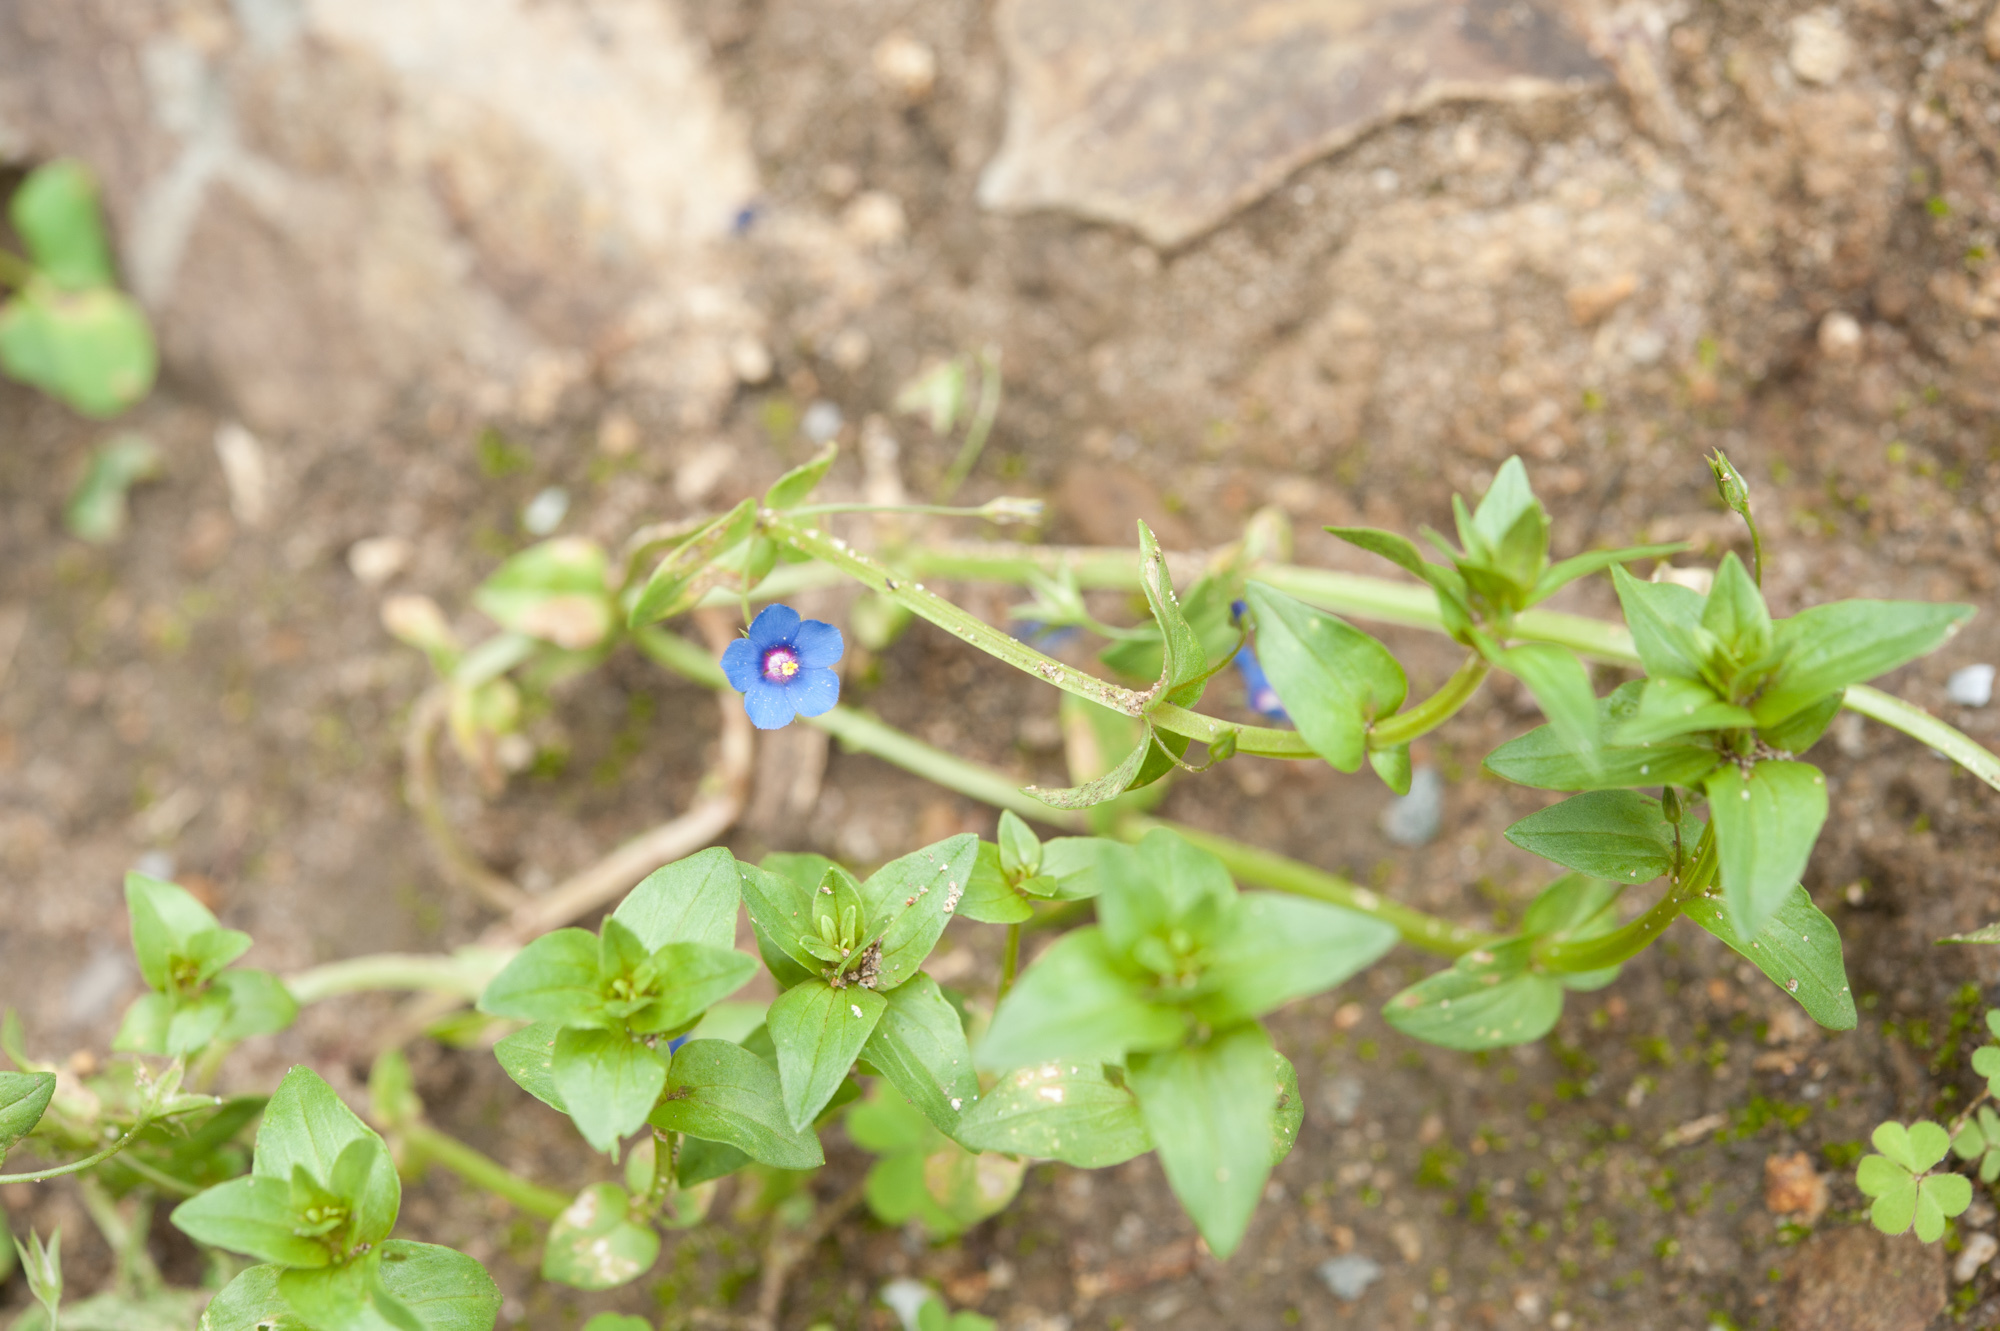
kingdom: Plantae
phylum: Tracheophyta
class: Magnoliopsida
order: Ericales
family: Primulaceae
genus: Lysimachia
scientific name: Lysimachia loeflingii
